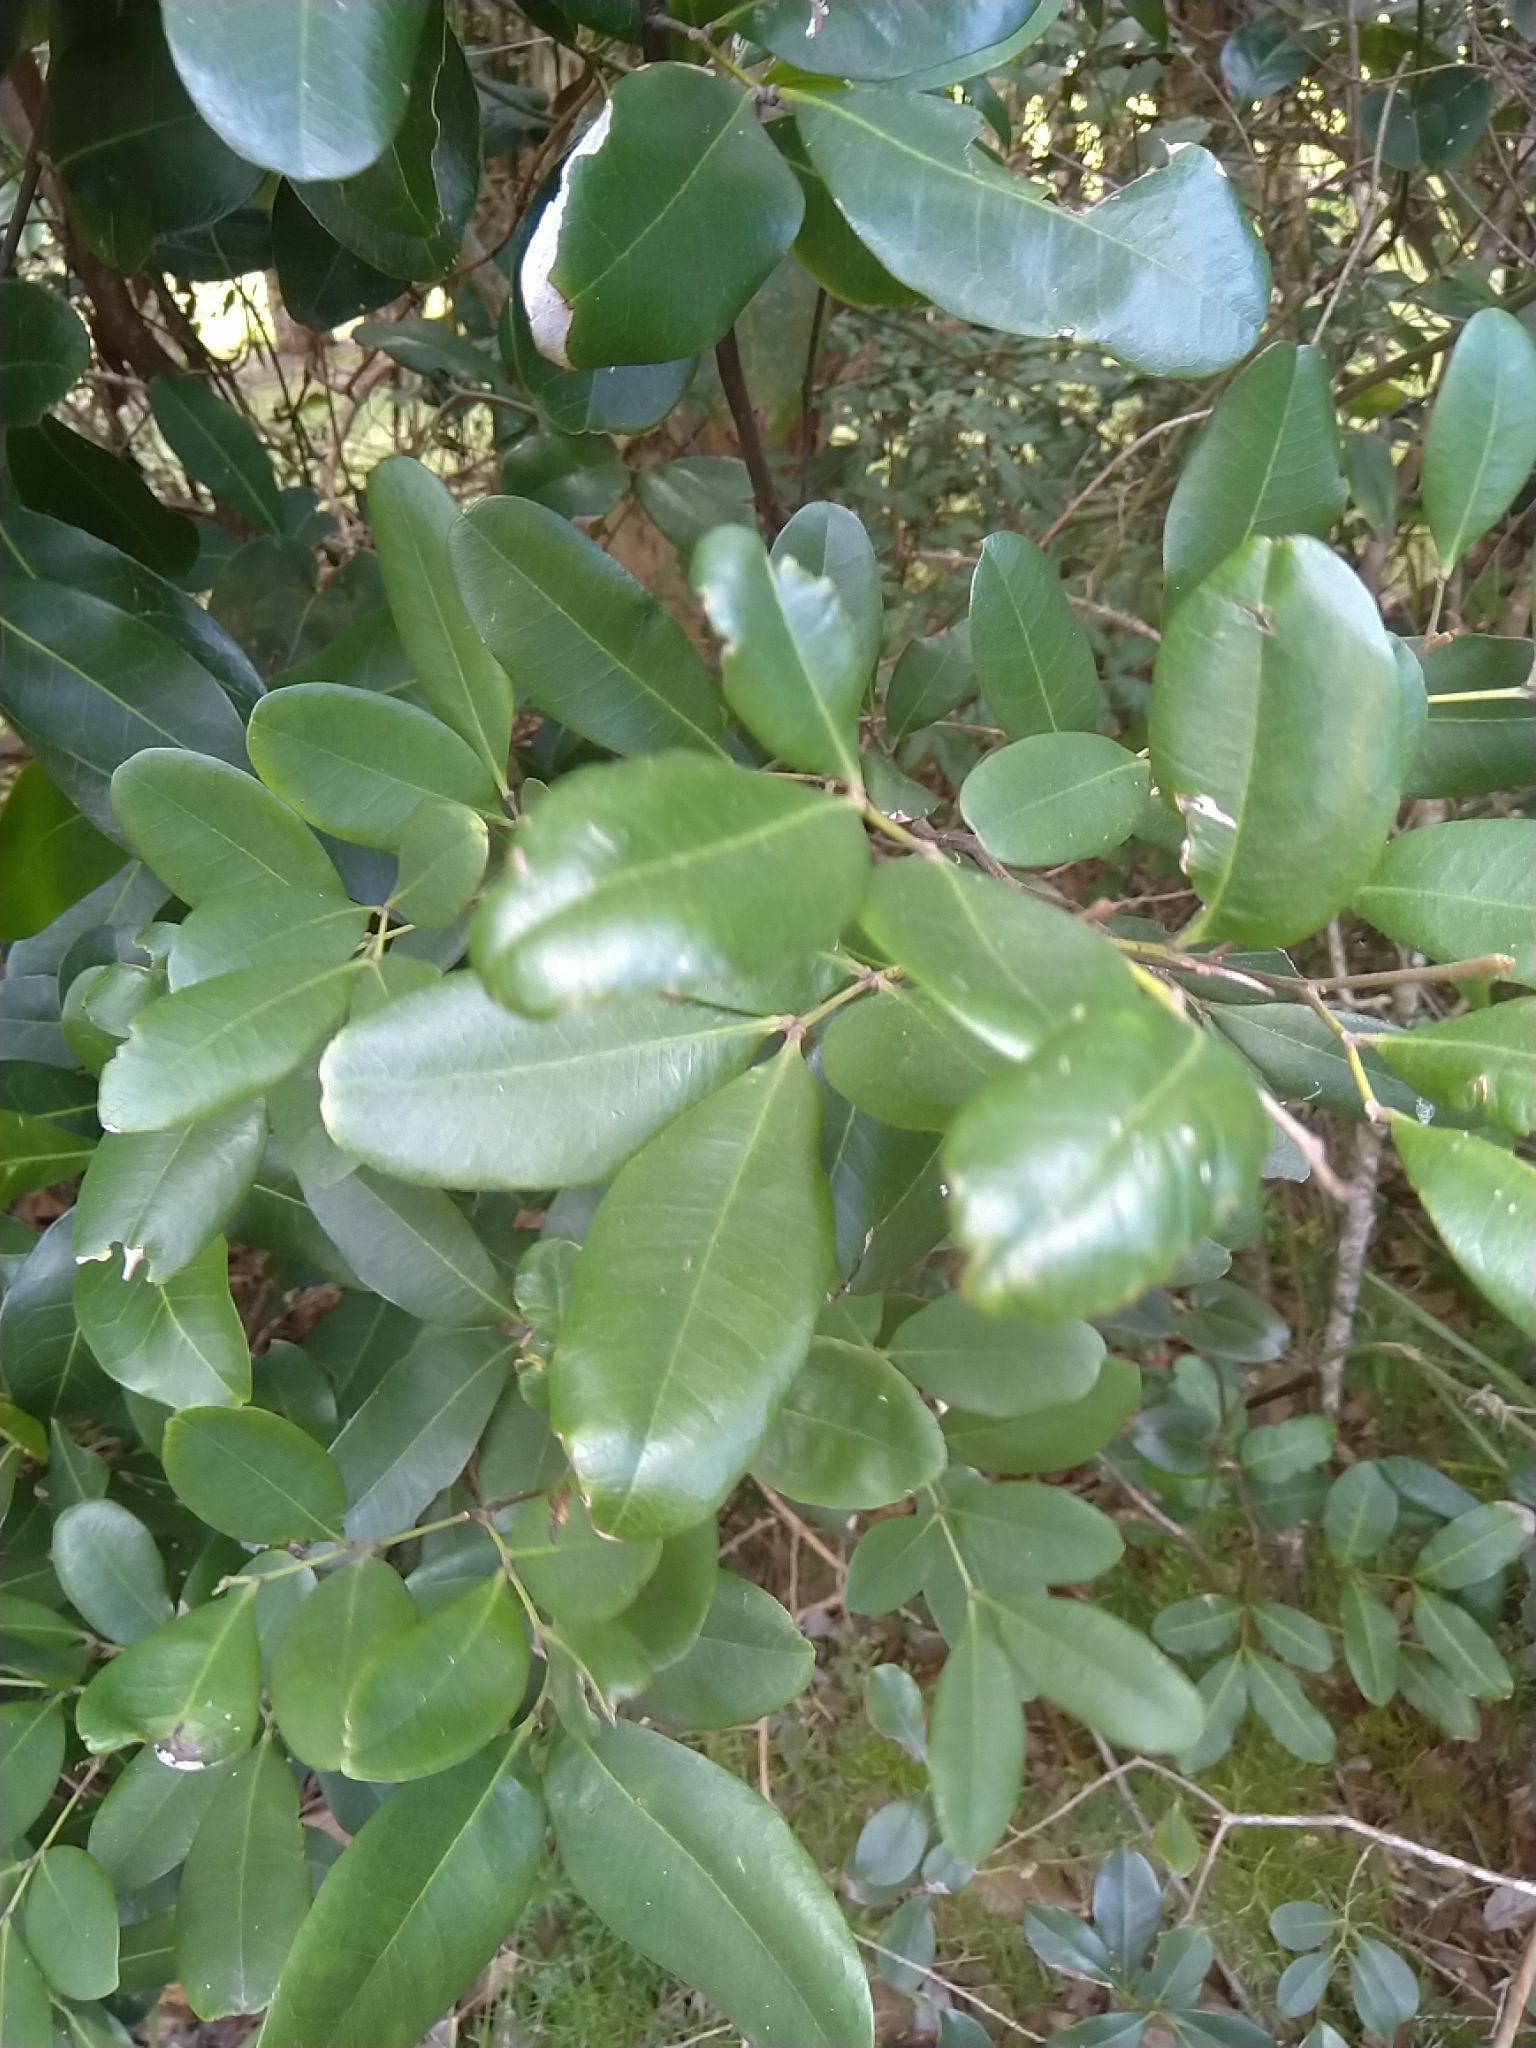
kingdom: Plantae
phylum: Tracheophyta
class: Magnoliopsida
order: Sapindales
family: Sapindaceae
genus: Guioa
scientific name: Guioa semiglauca
